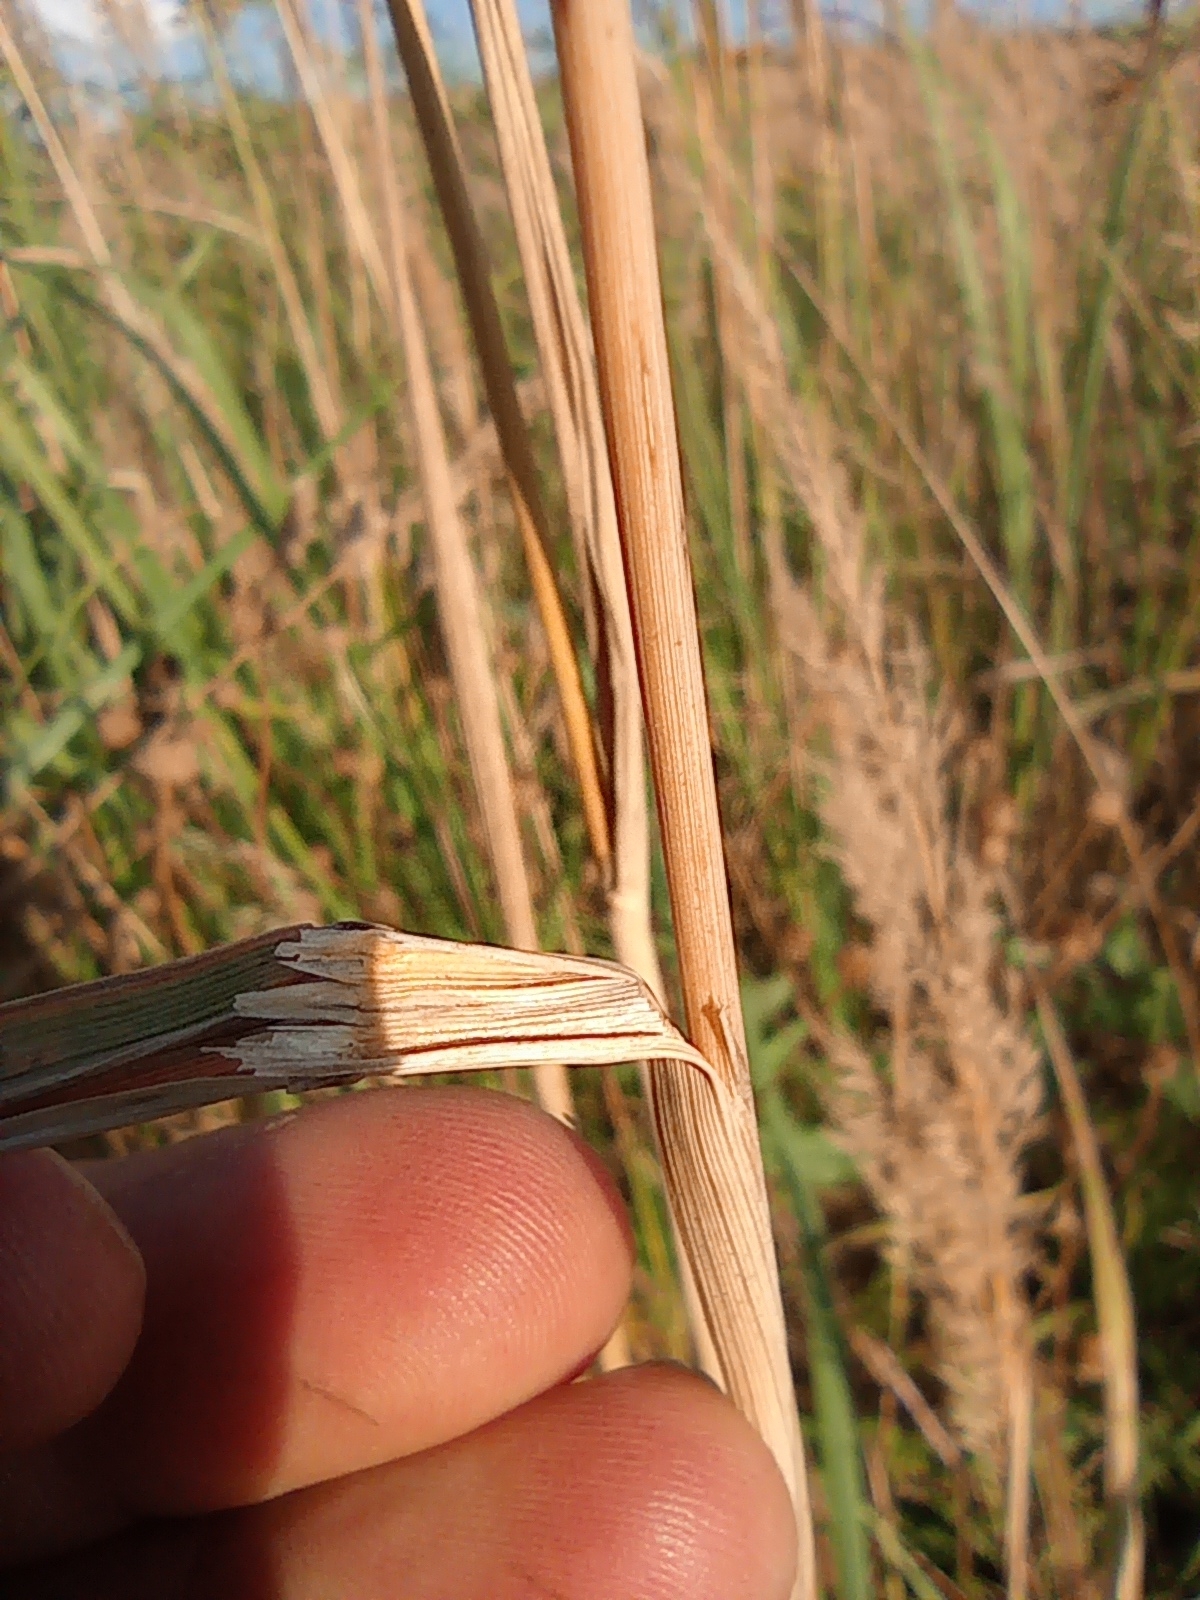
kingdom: Plantae
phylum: Tracheophyta
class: Liliopsida
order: Poales
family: Poaceae
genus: Calamagrostis
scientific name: Calamagrostis epigejos
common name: Wood small-reed
